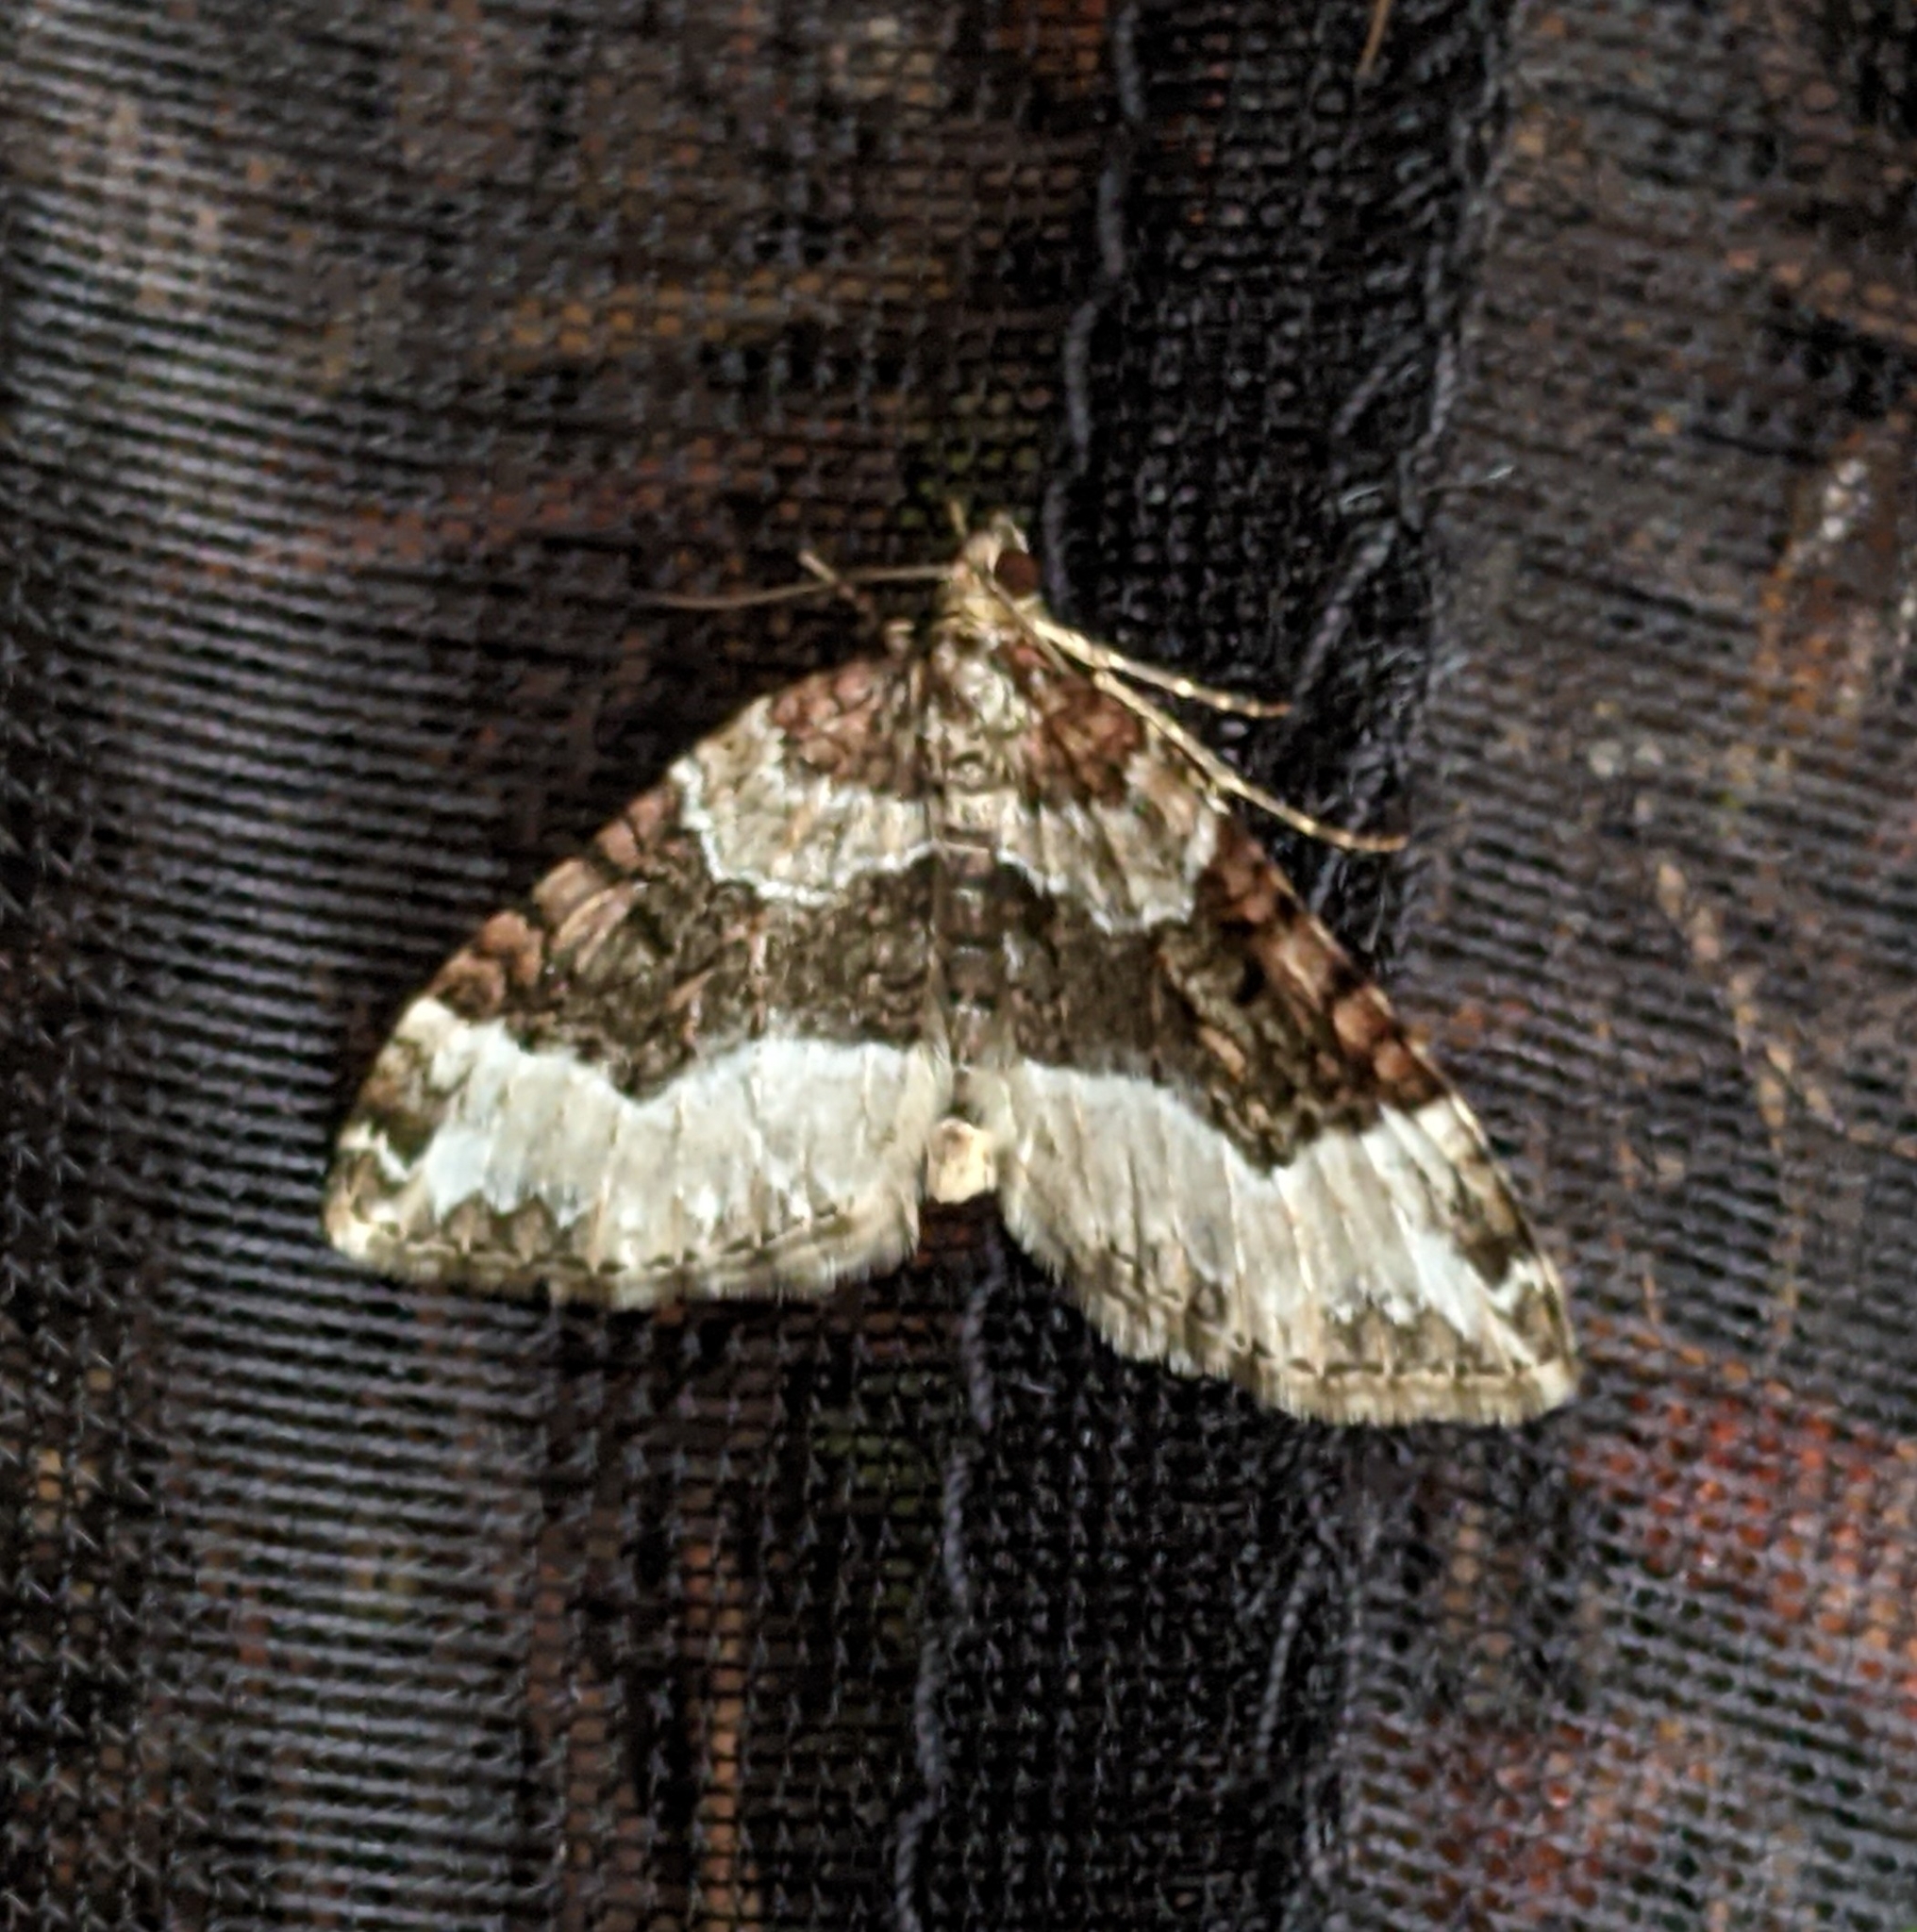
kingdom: Animalia
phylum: Arthropoda
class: Insecta
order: Lepidoptera
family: Geometridae
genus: Euphyia
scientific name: Euphyia intermediata
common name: Sharp-angled carpet
